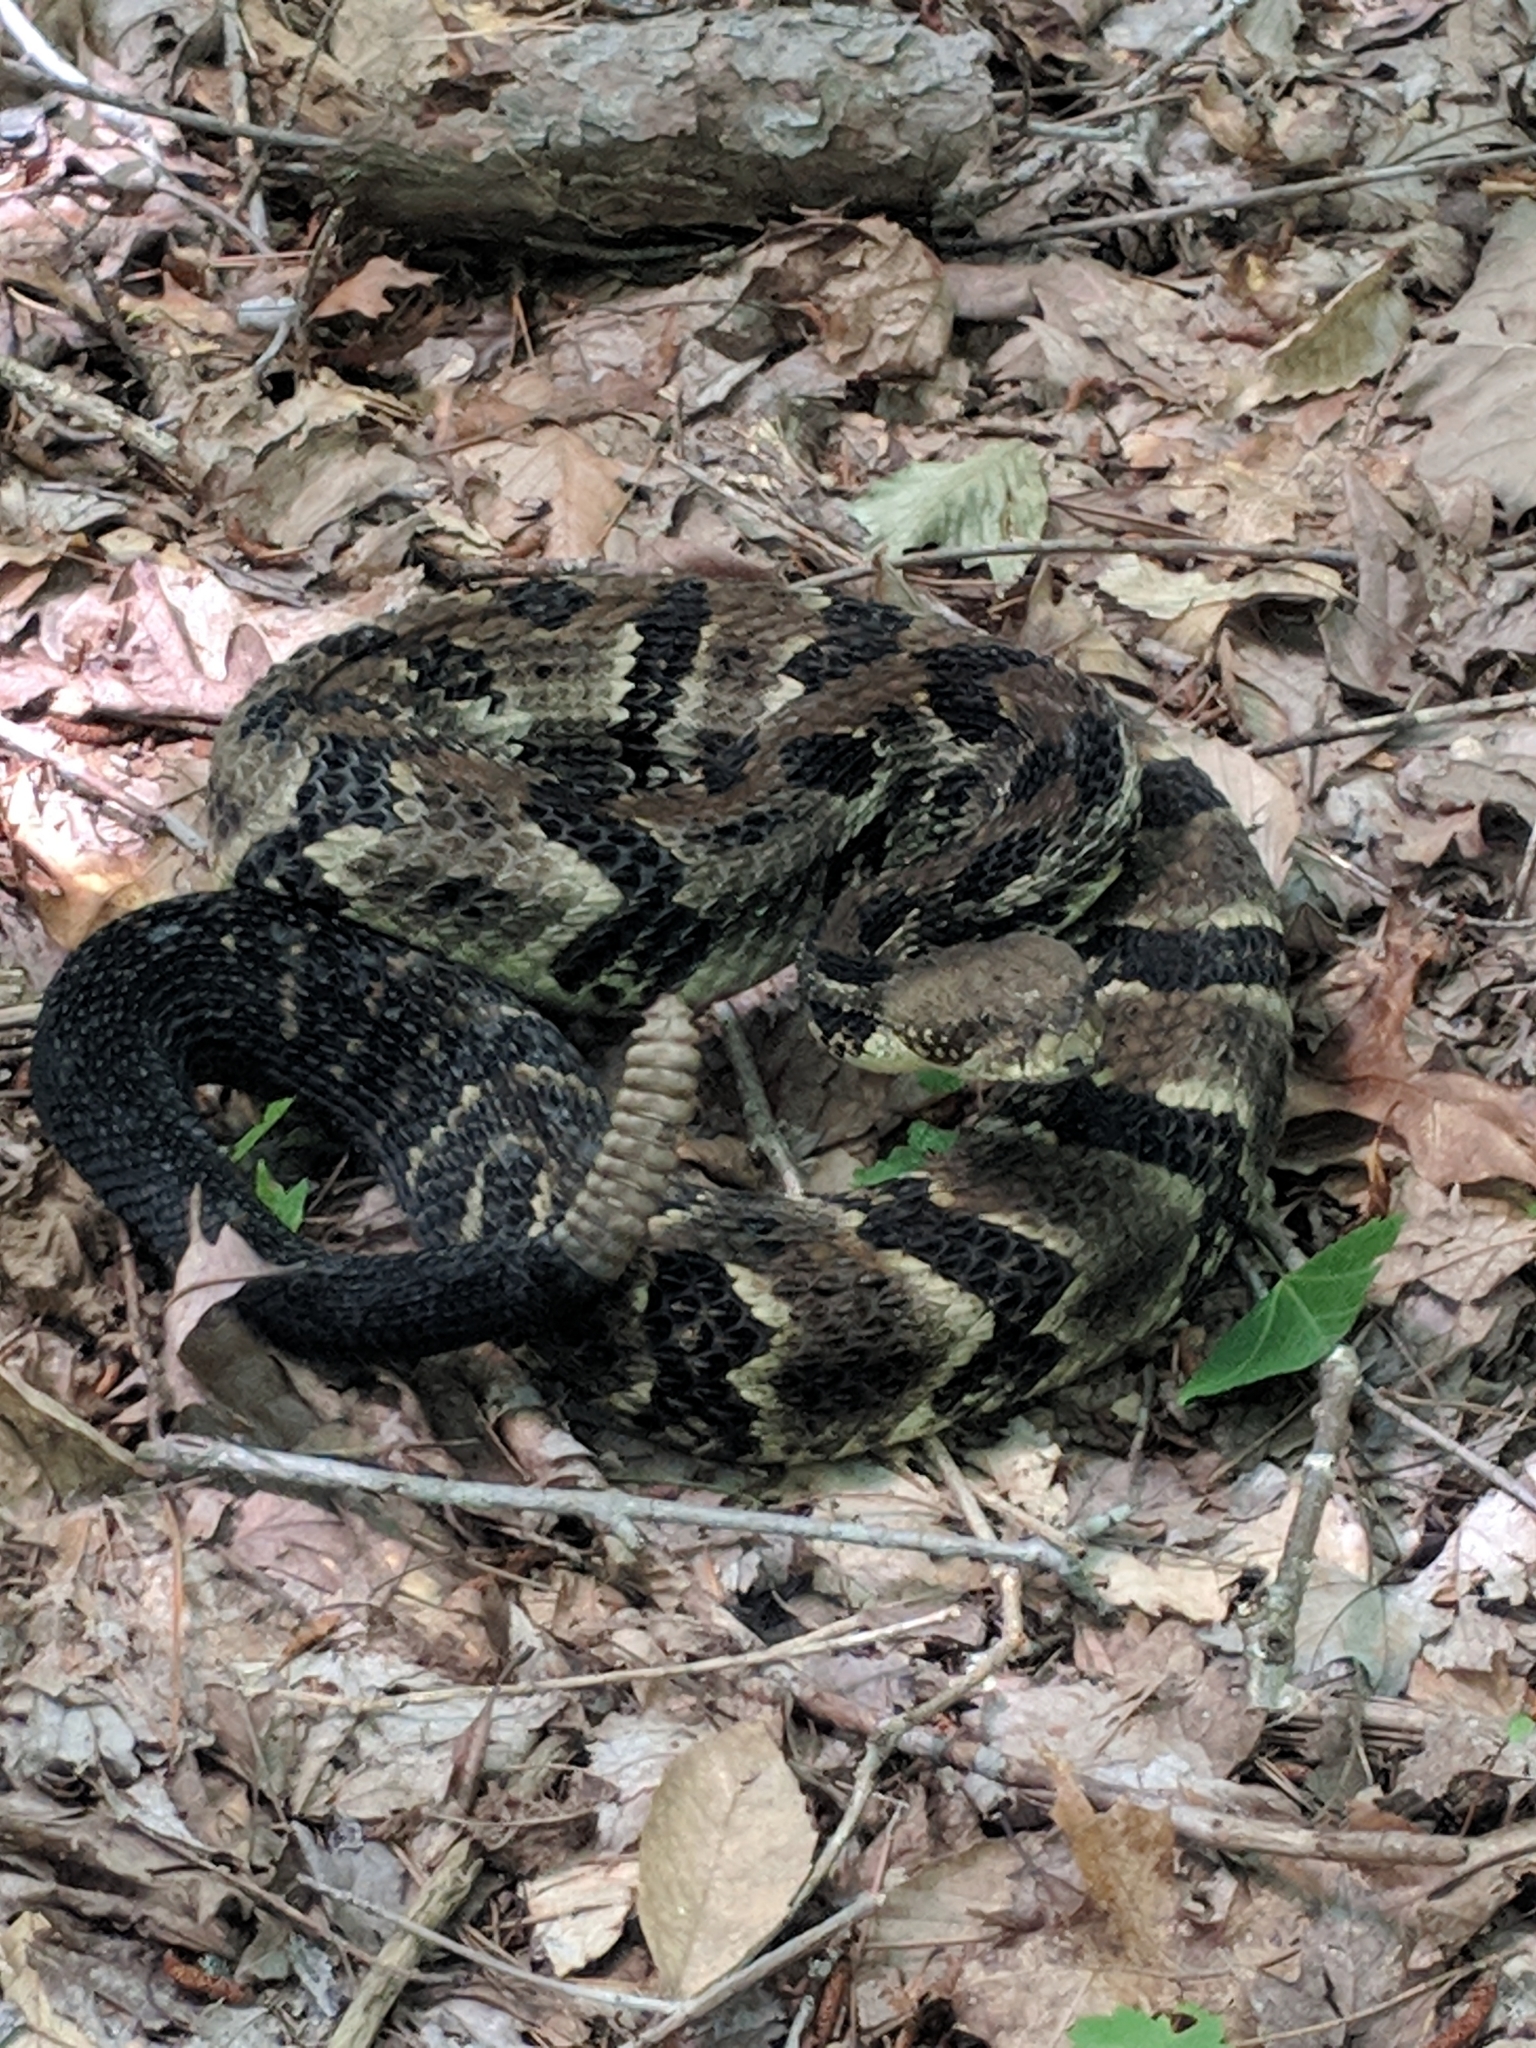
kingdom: Animalia
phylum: Chordata
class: Squamata
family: Viperidae
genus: Crotalus
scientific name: Crotalus horridus
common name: Timber rattlesnake
